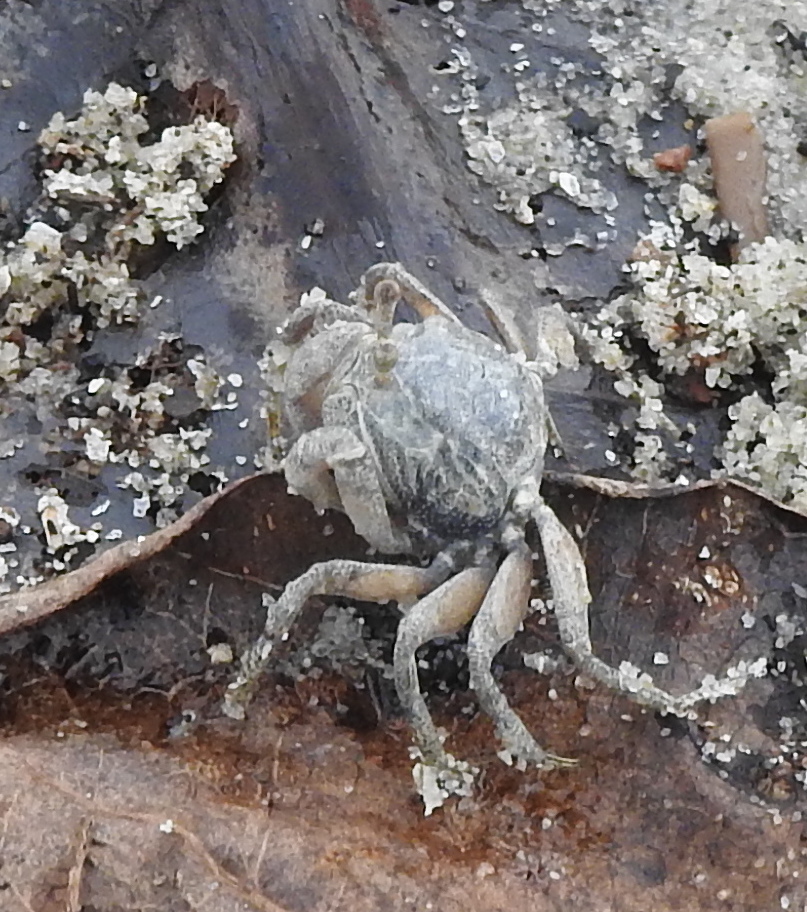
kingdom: Animalia
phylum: Arthropoda
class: Malacostraca
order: Decapoda
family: Dotillidae
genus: Dotilla
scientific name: Dotilla myctiroides
